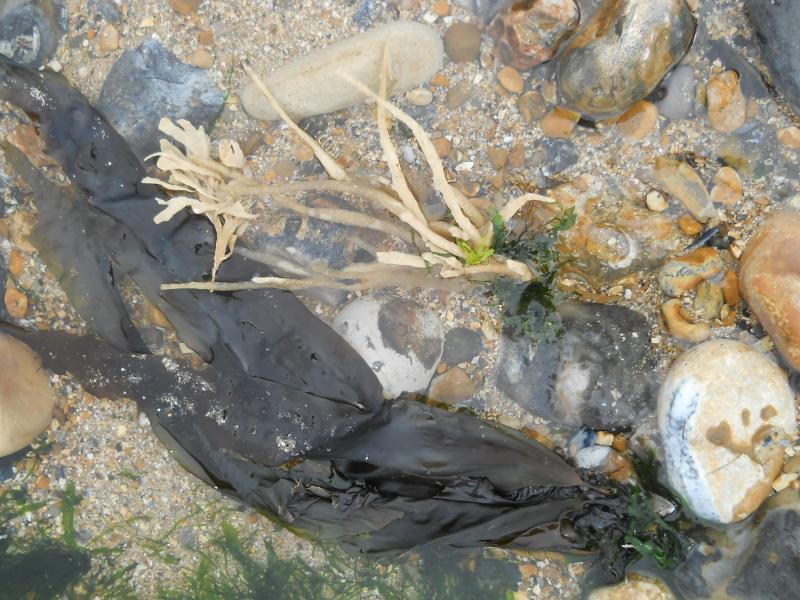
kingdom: Animalia
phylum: Bryozoa
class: Gymnolaemata
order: Cheilostomatida
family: Flustridae
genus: Flustra
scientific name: Flustra foliacea
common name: Hornwrack
